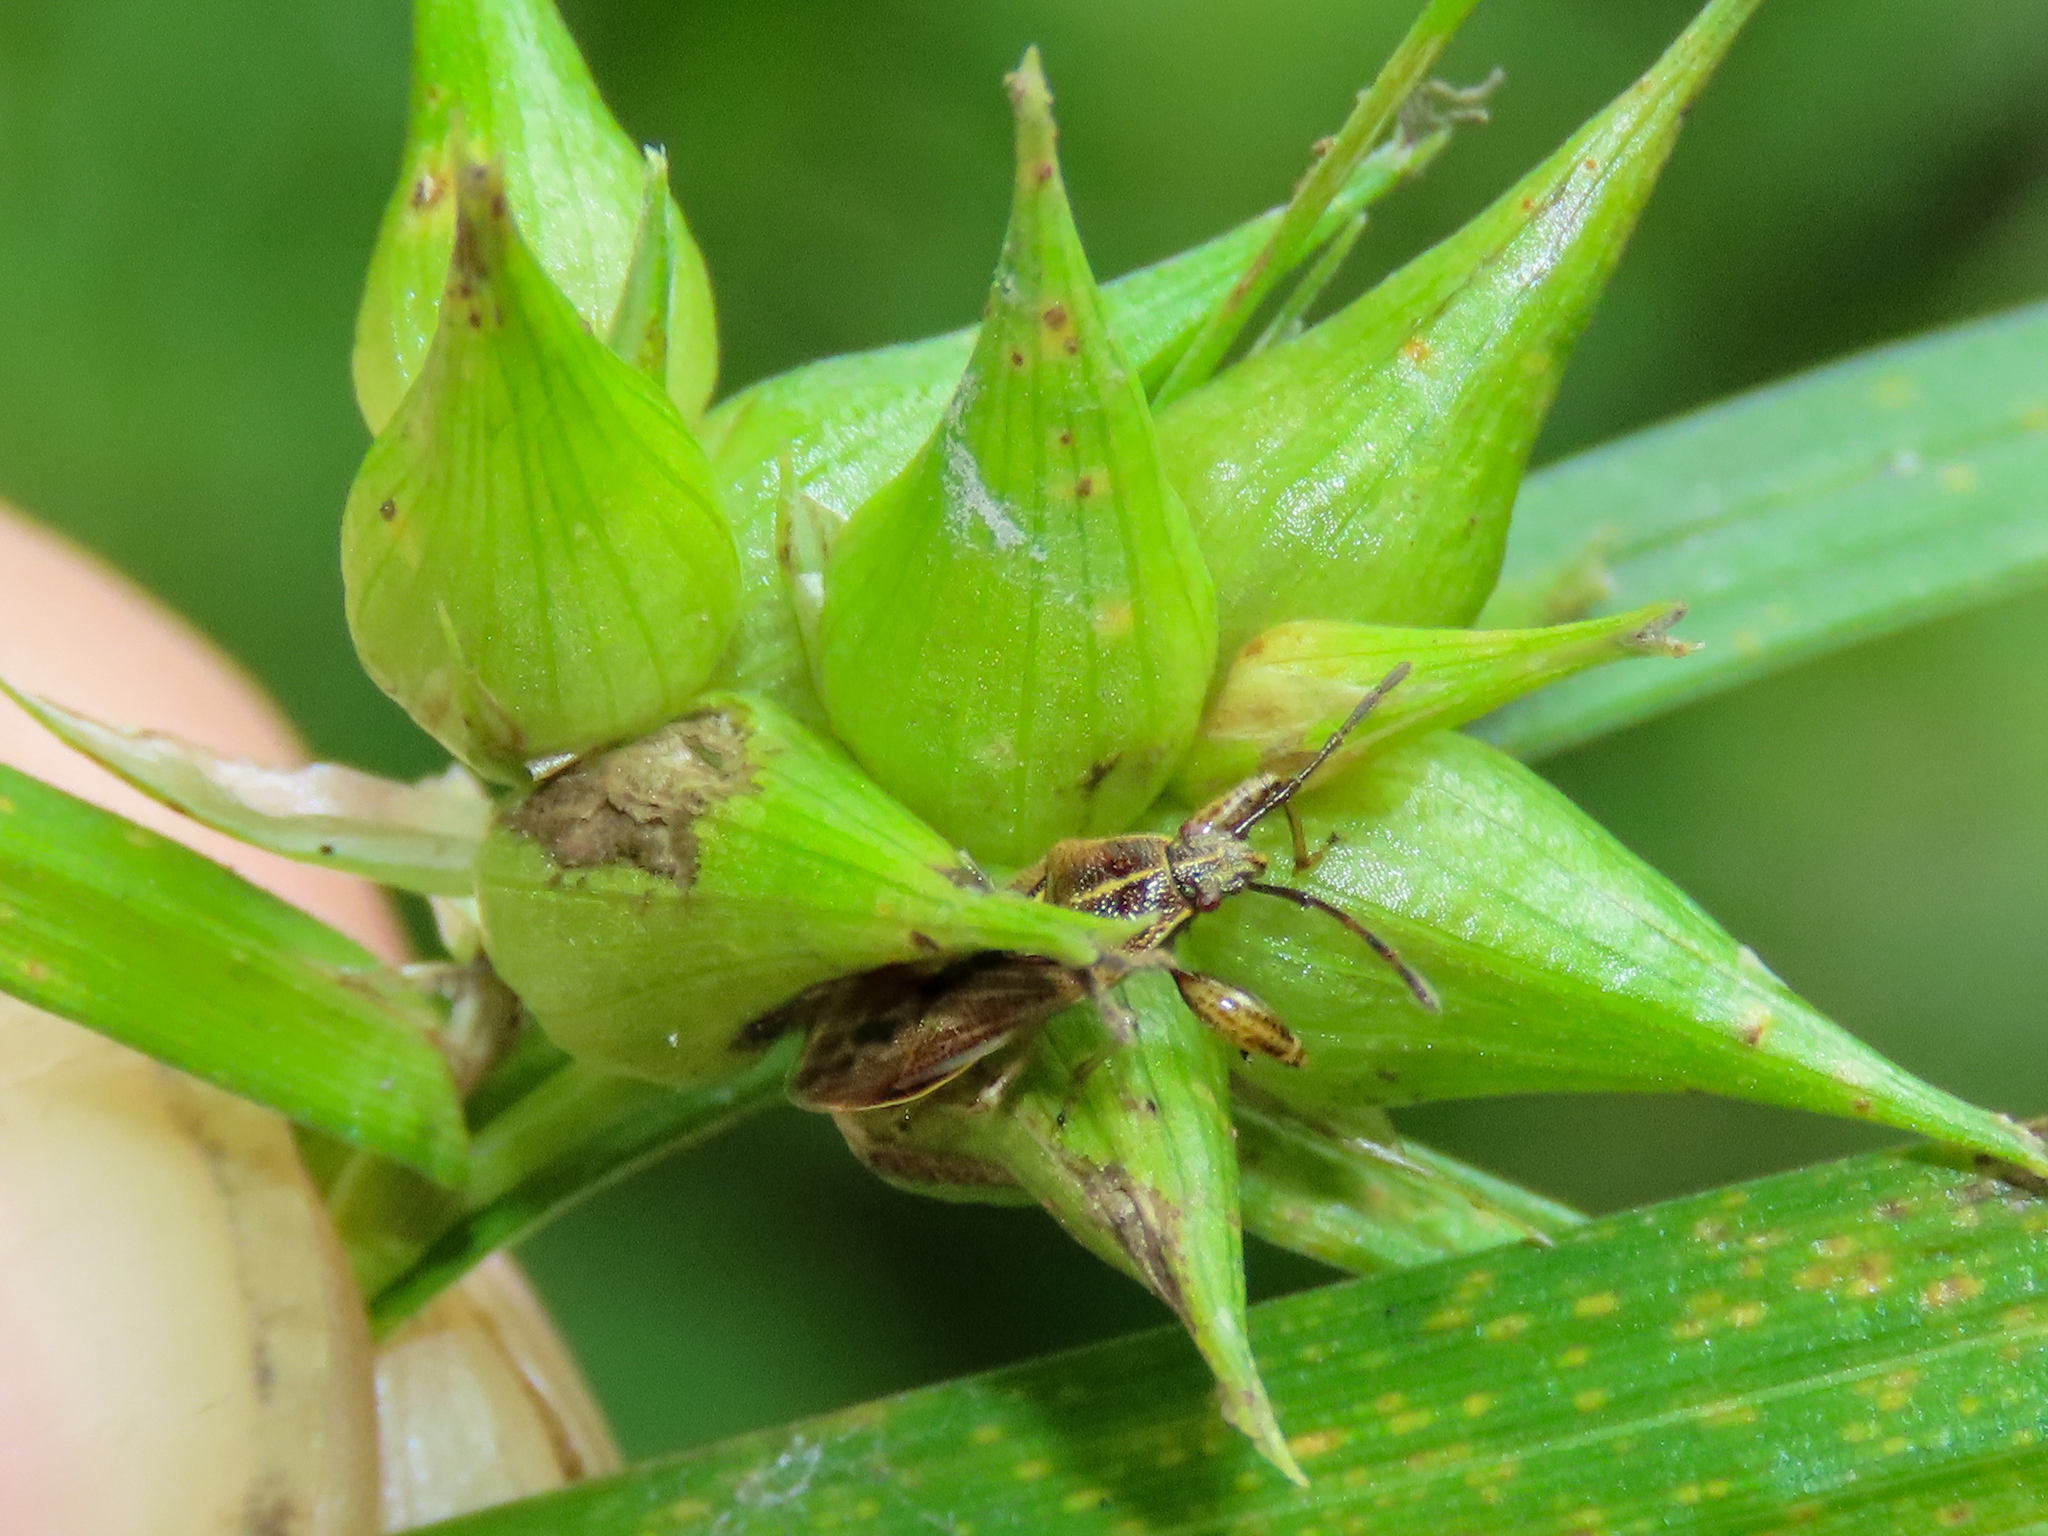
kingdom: Animalia
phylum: Arthropoda
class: Insecta
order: Hemiptera
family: Pachygronthidae
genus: Oedancala
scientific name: Oedancala dorsalis
